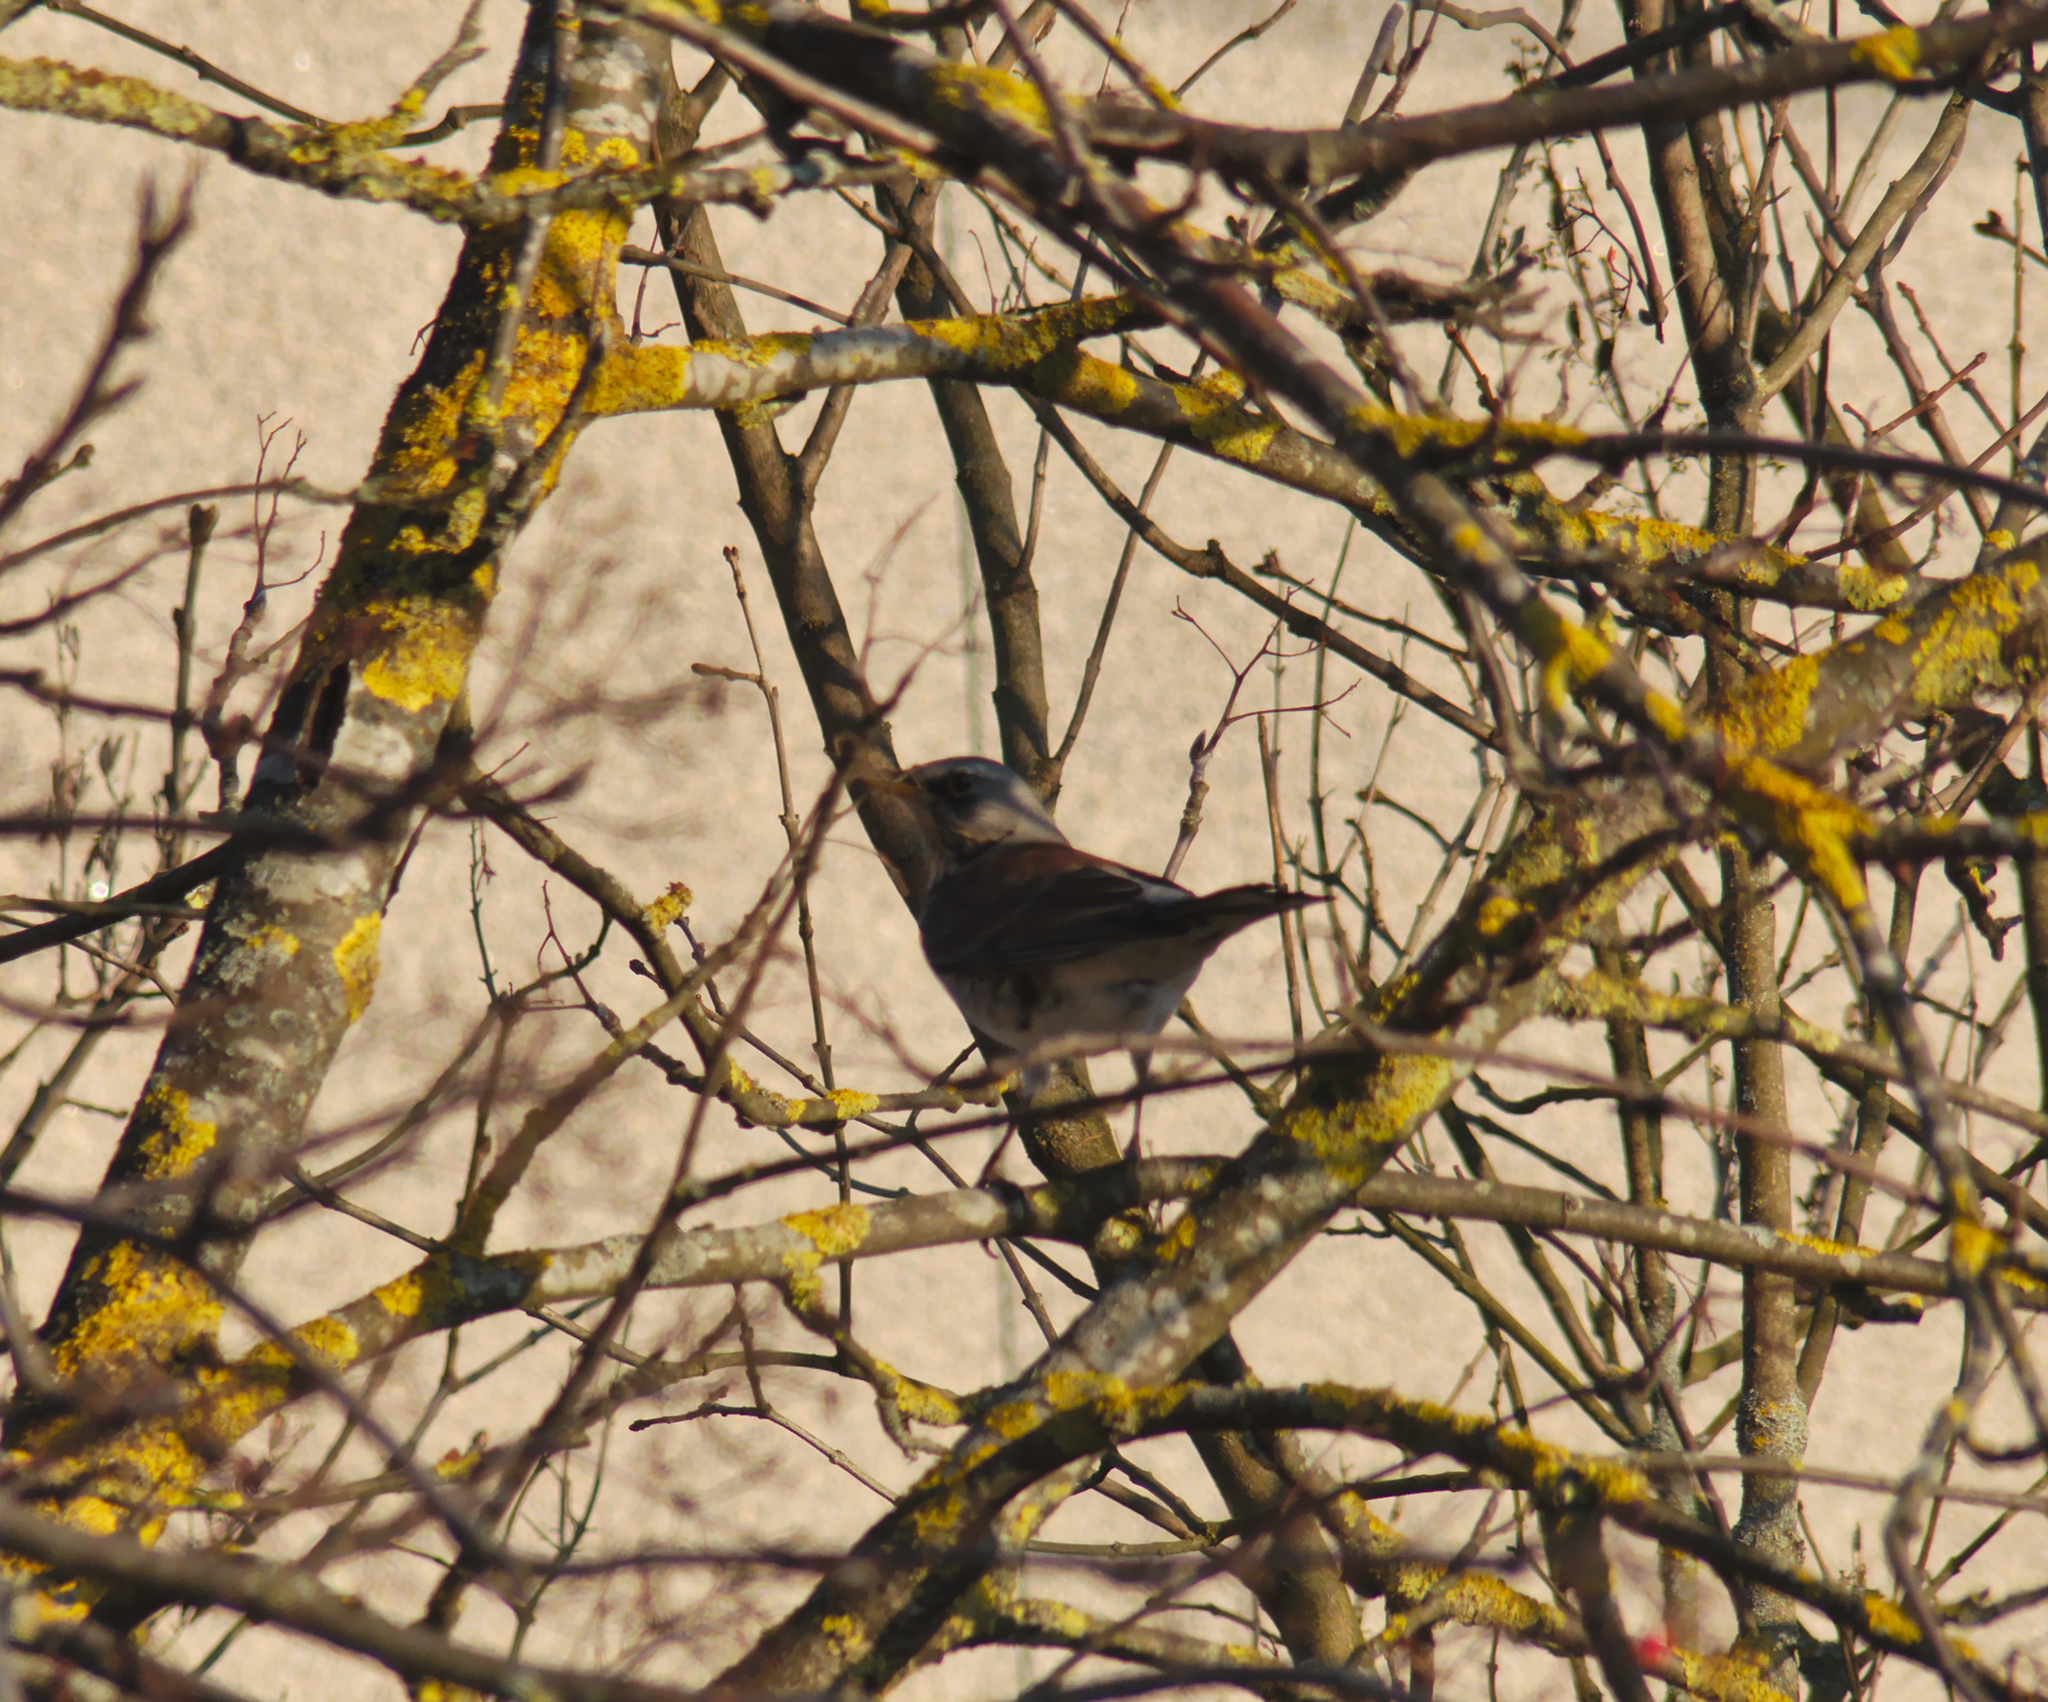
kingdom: Animalia
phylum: Chordata
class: Aves
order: Passeriformes
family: Turdidae
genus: Turdus
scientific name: Turdus pilaris
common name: Fieldfare
